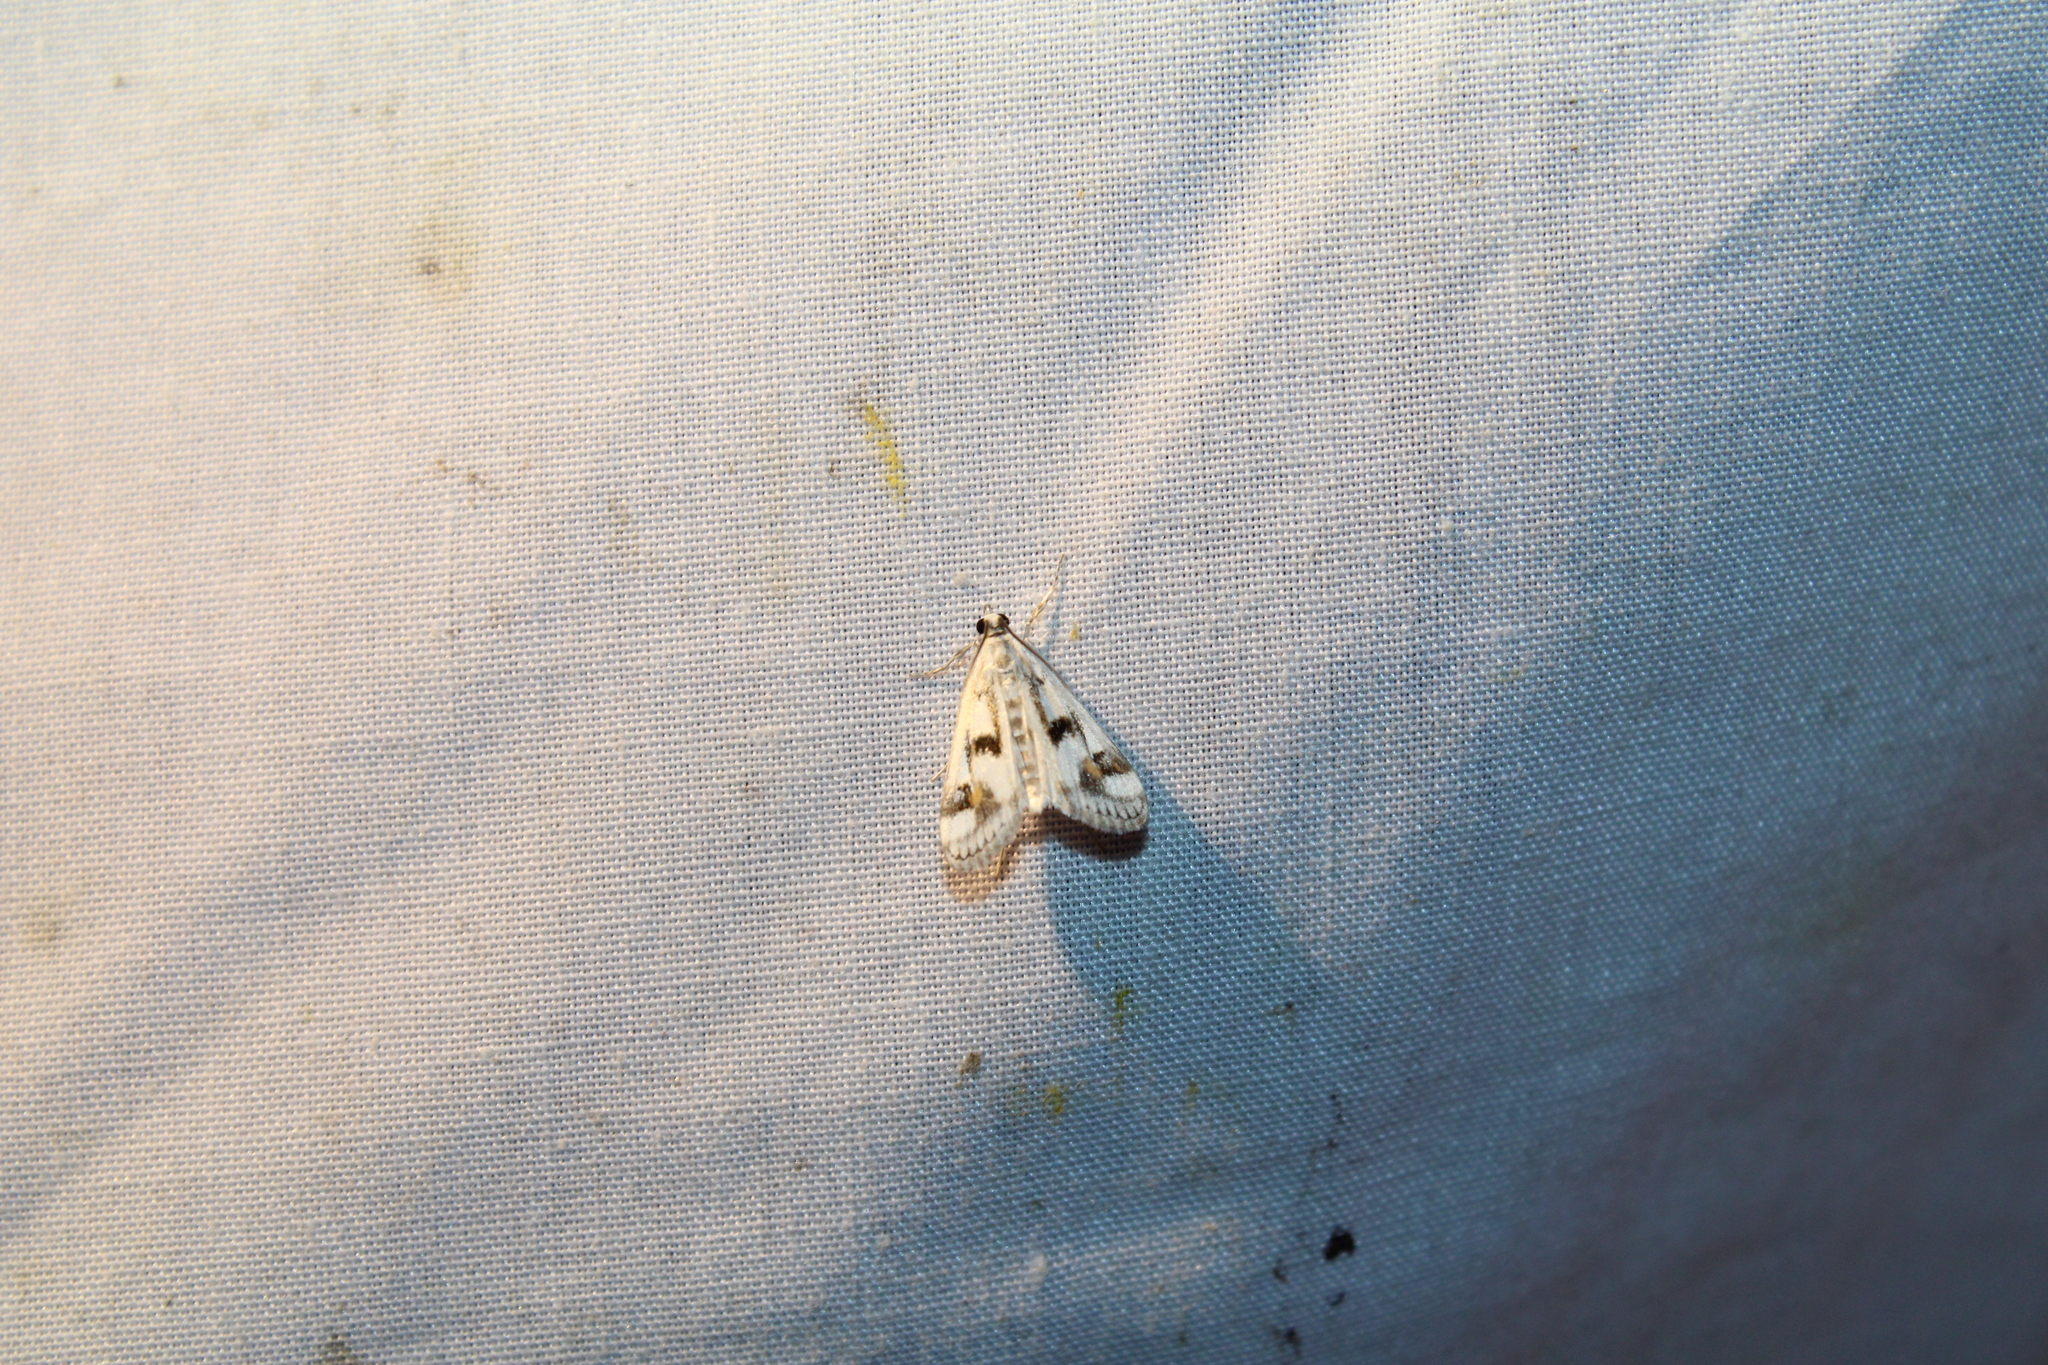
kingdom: Animalia
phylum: Arthropoda
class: Insecta
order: Lepidoptera
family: Crambidae
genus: Parapoynx
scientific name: Parapoynx maculalis
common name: Polymorphic pondweed moth
